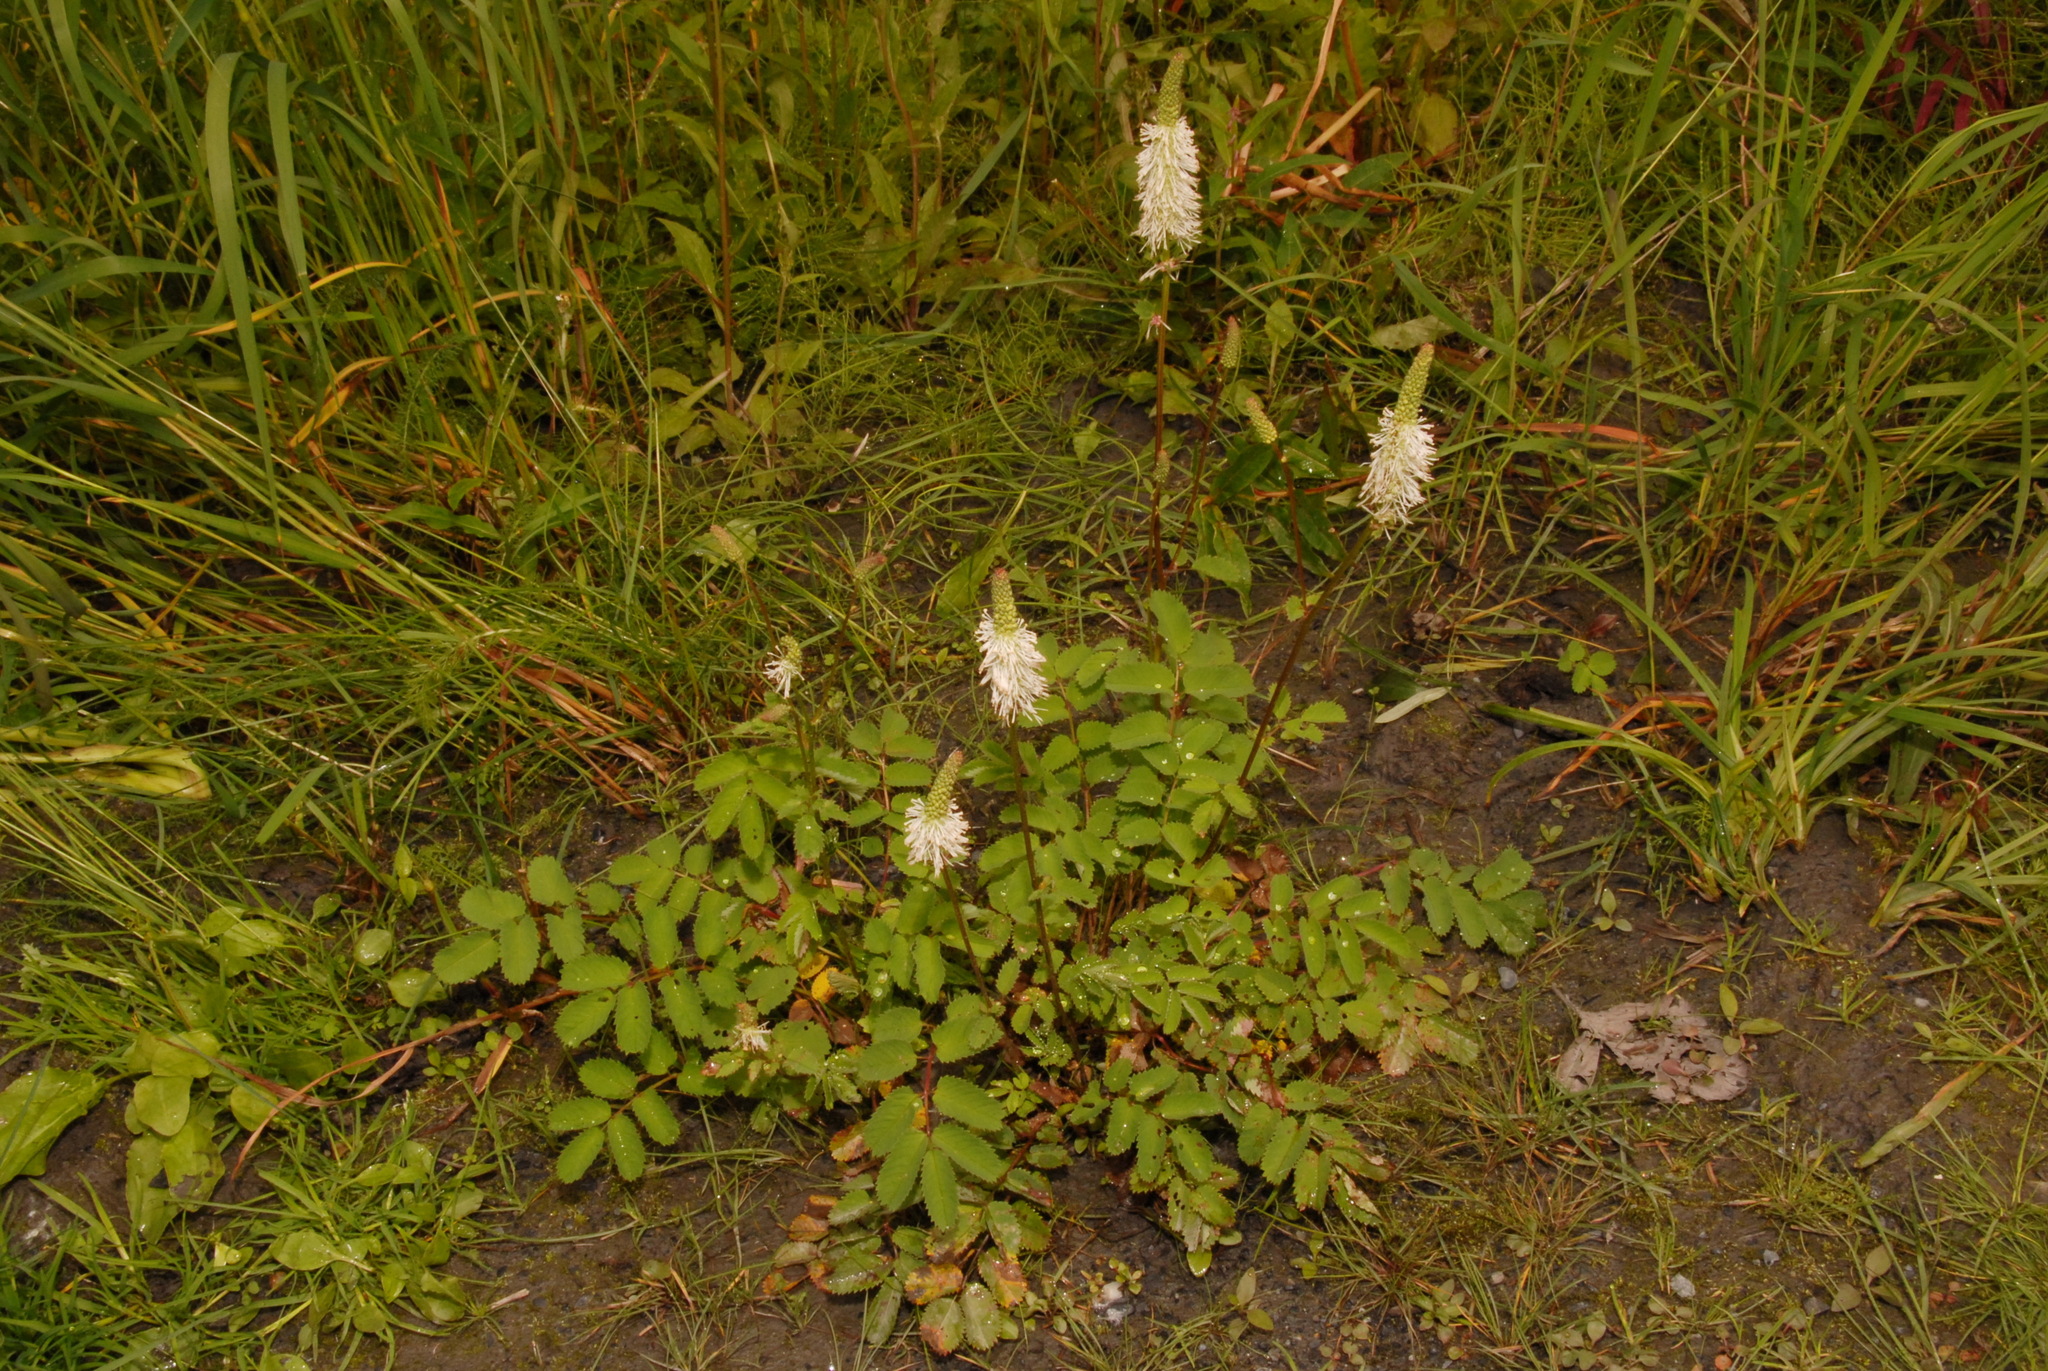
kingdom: Plantae
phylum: Tracheophyta
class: Magnoliopsida
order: Rosales
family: Rosaceae
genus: Sanguisorba
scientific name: Sanguisorba stipulata
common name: Sitka burnet
